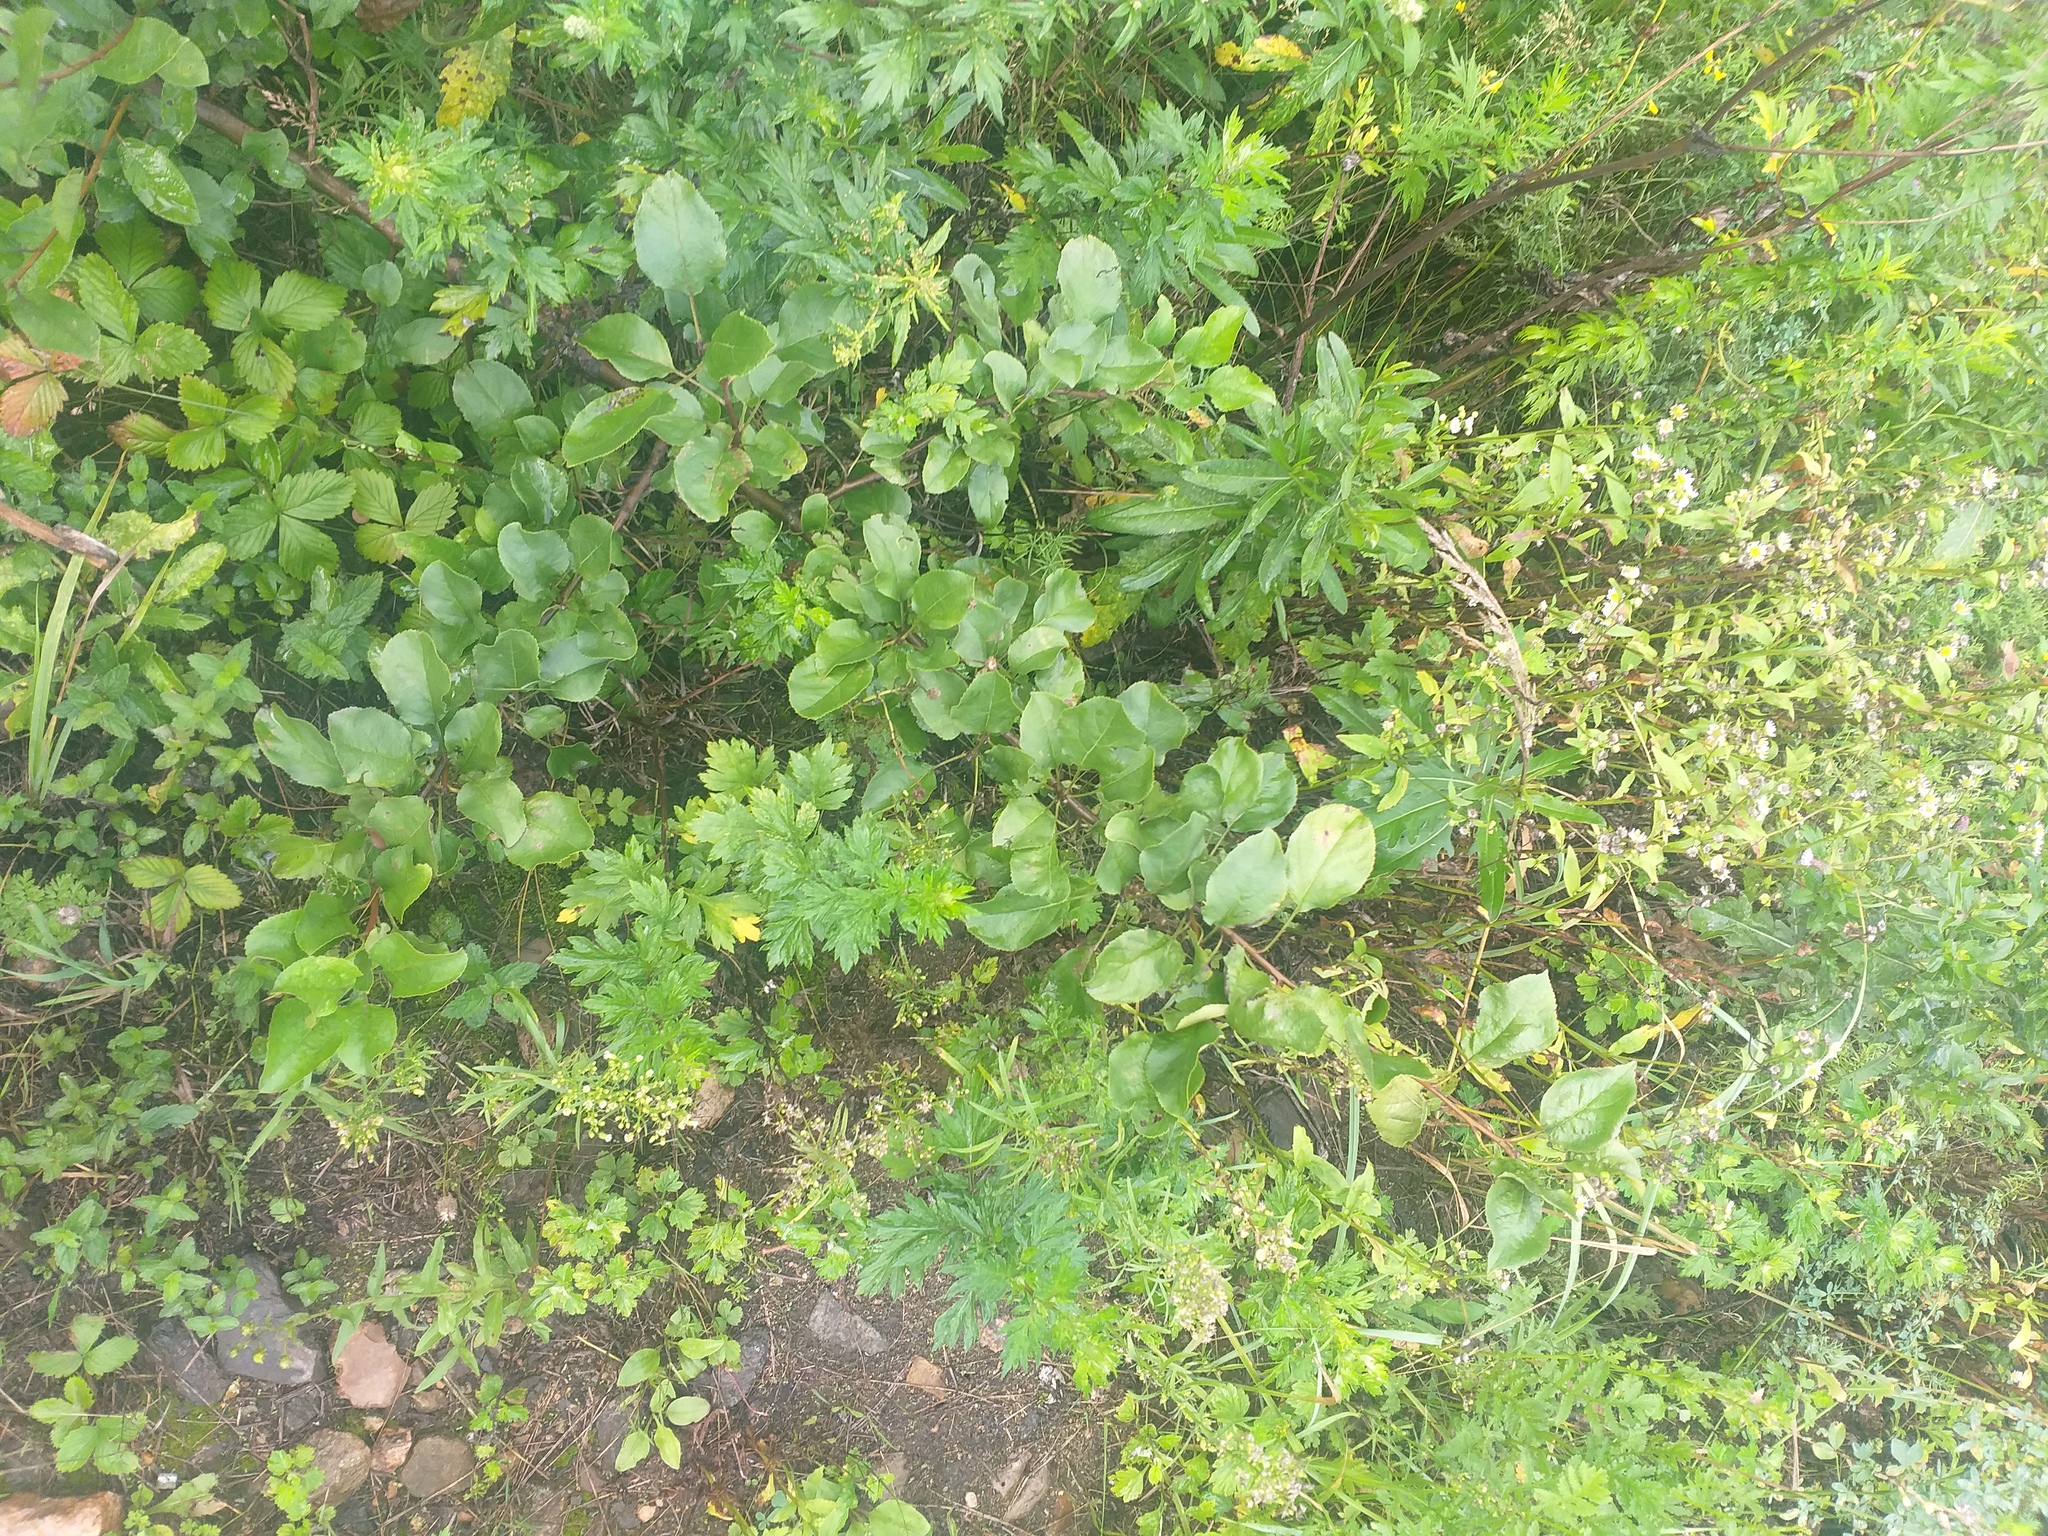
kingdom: Plantae
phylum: Tracheophyta
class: Magnoliopsida
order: Rosales
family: Rosaceae
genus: Pyrus
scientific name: Pyrus communis
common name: Pear
